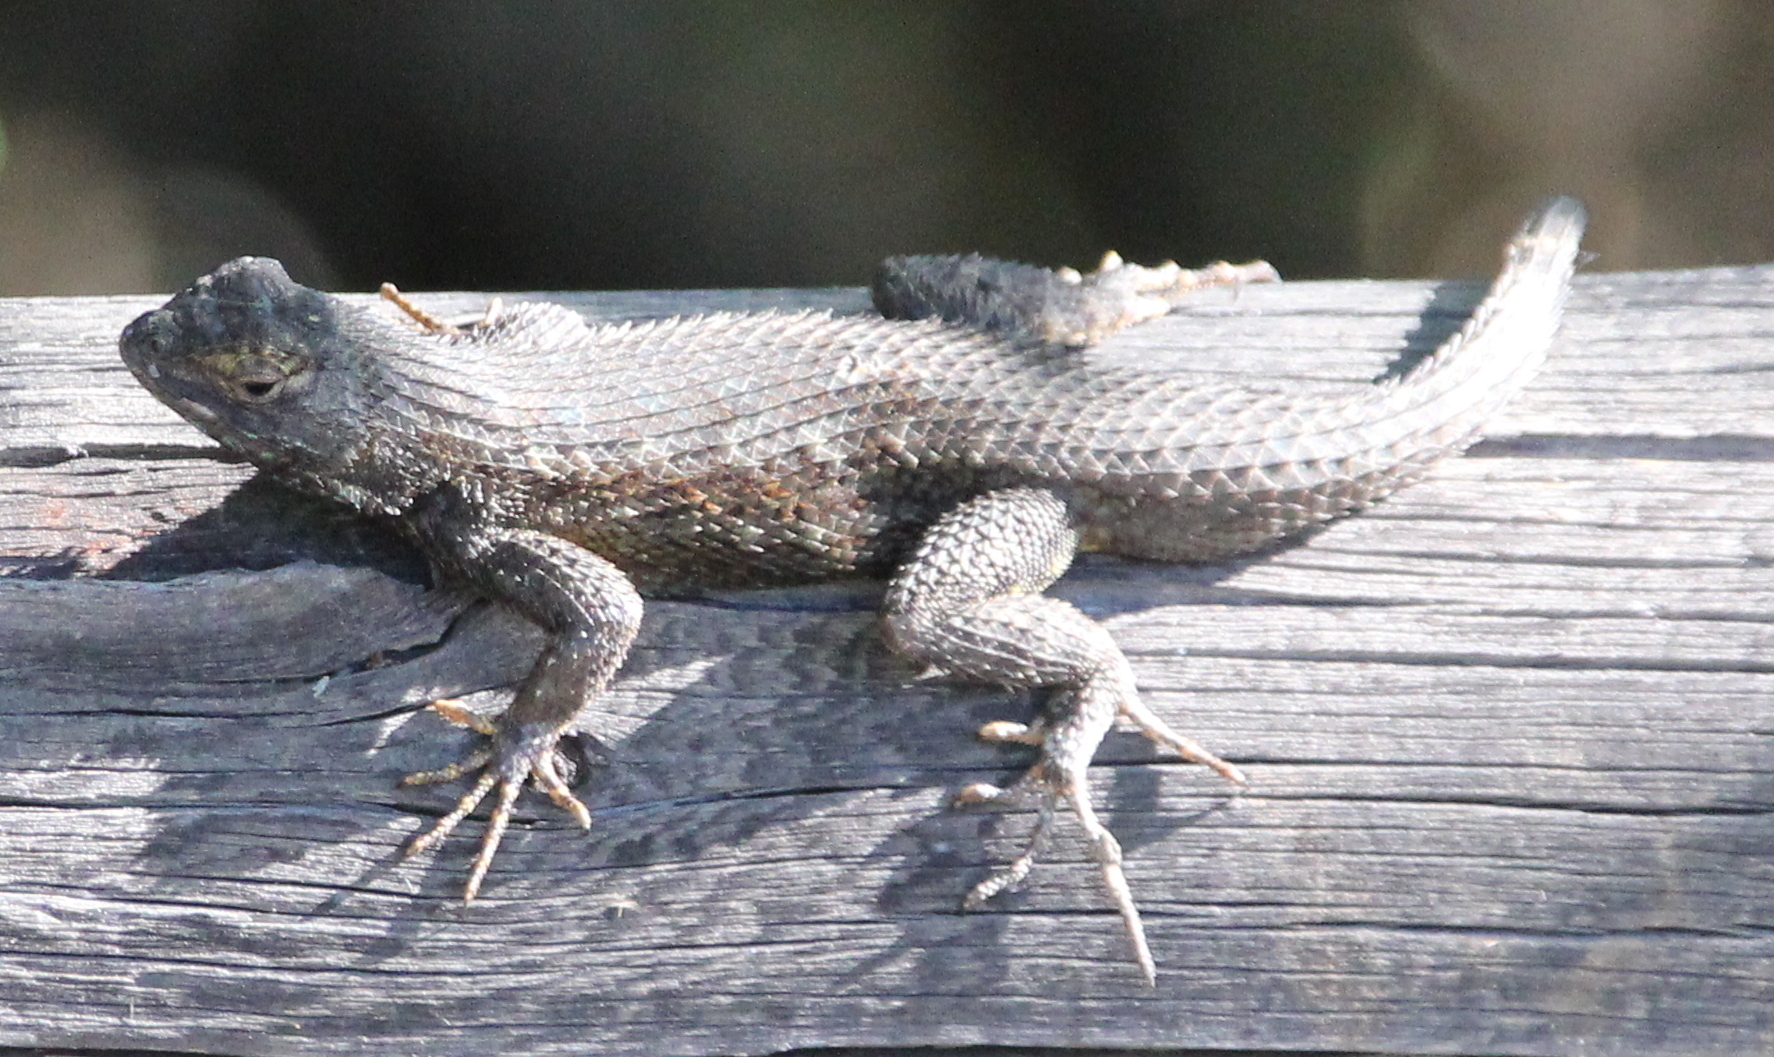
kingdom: Animalia
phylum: Chordata
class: Squamata
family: Phrynosomatidae
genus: Sceloporus
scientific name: Sceloporus occidentalis
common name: Western fence lizard
